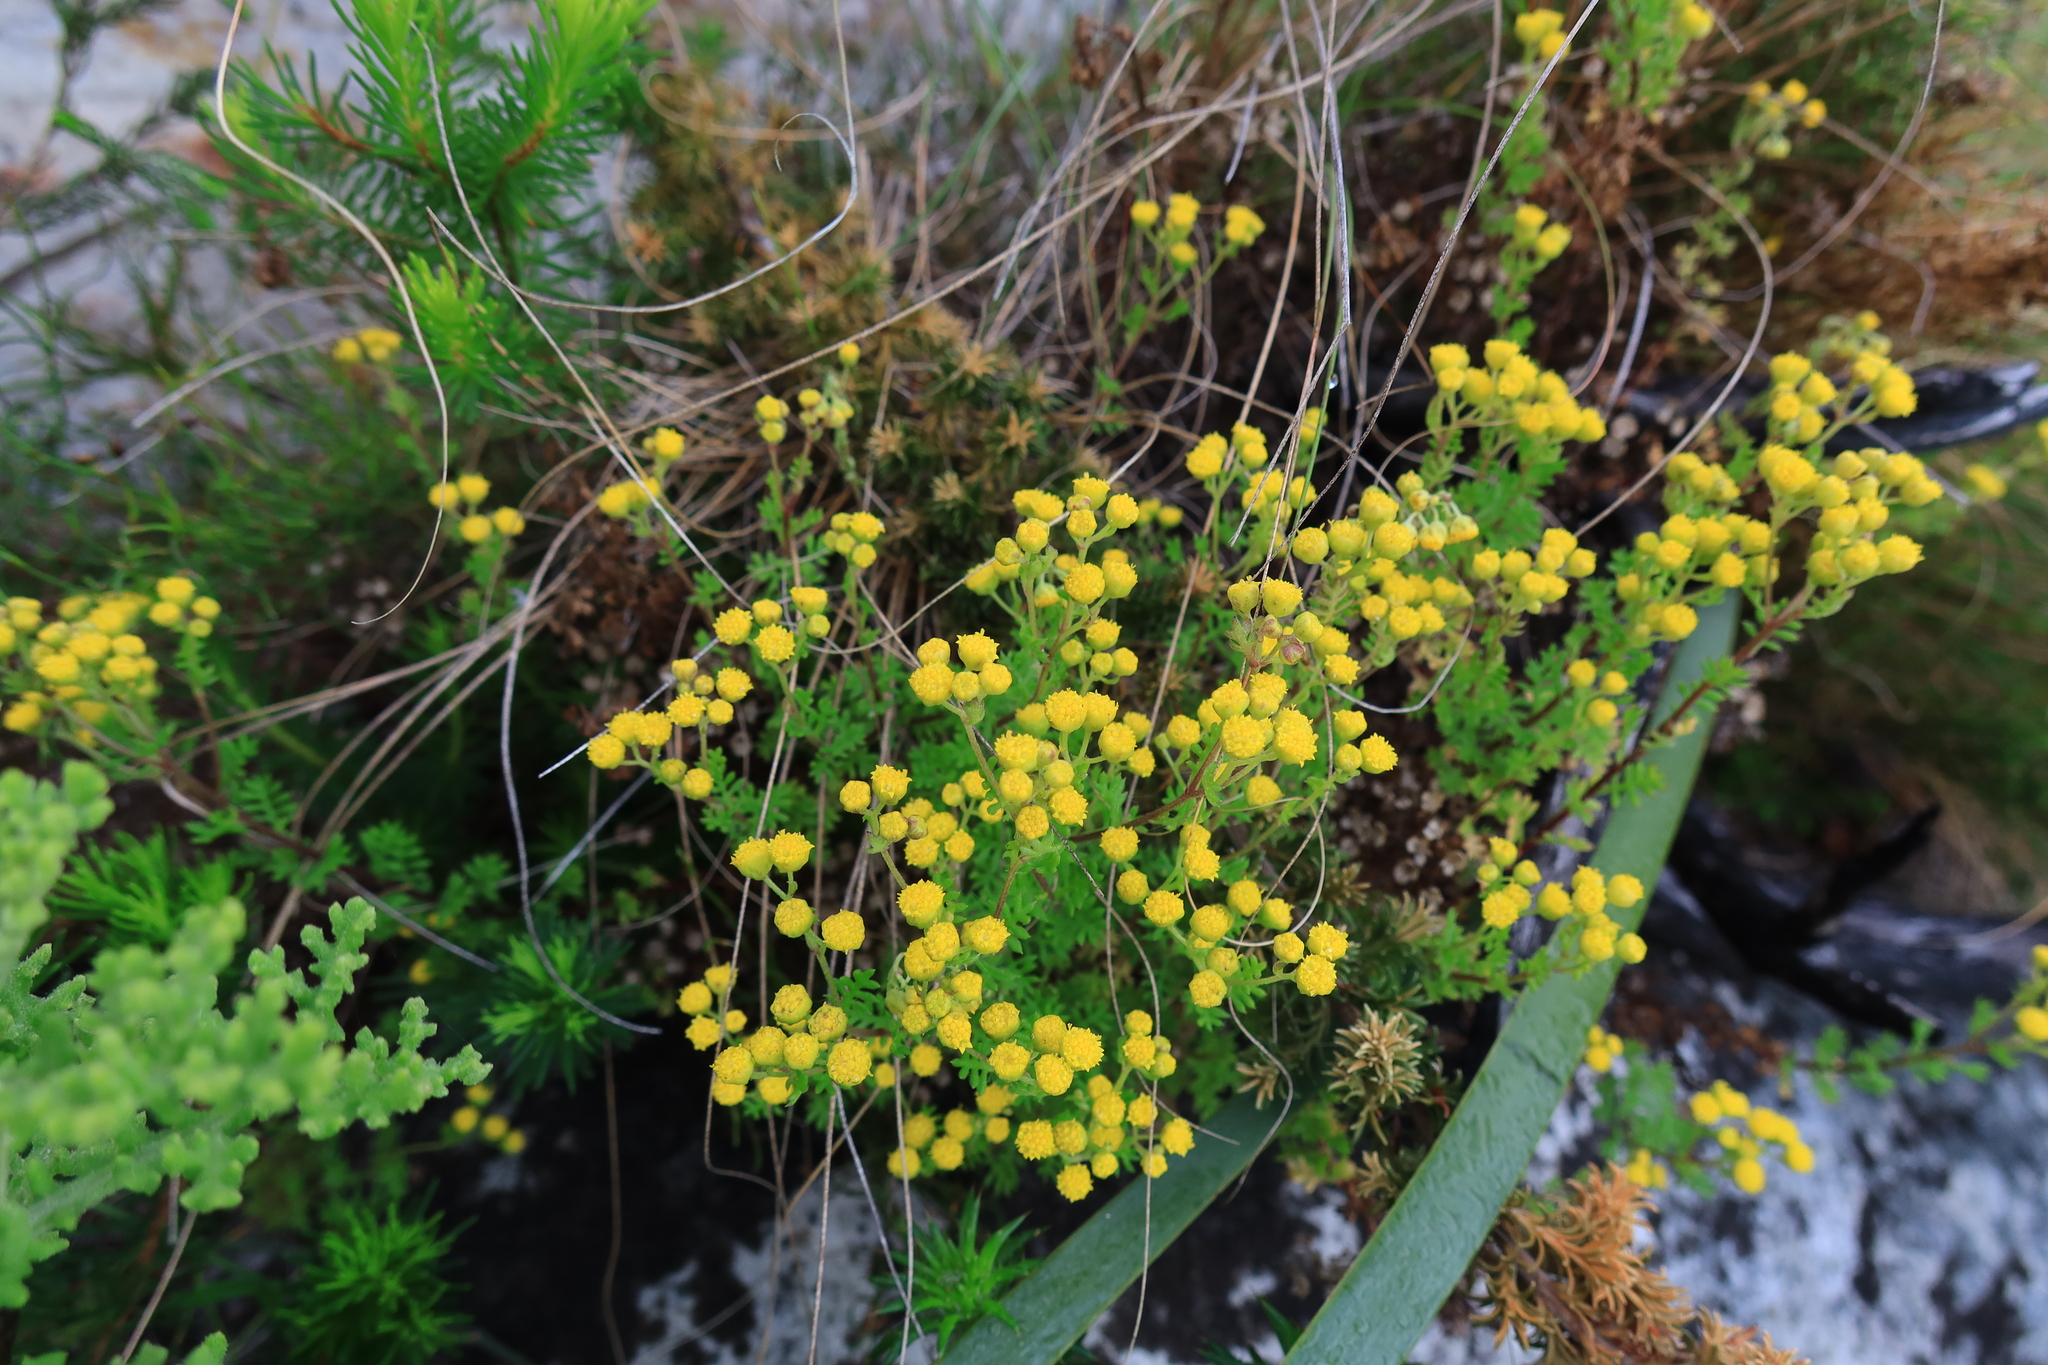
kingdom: Plantae
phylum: Tracheophyta
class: Magnoliopsida
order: Asterales
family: Asteraceae
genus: Oncosiphon
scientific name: Oncosiphon suffruticosus
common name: Shrubby mayweed
